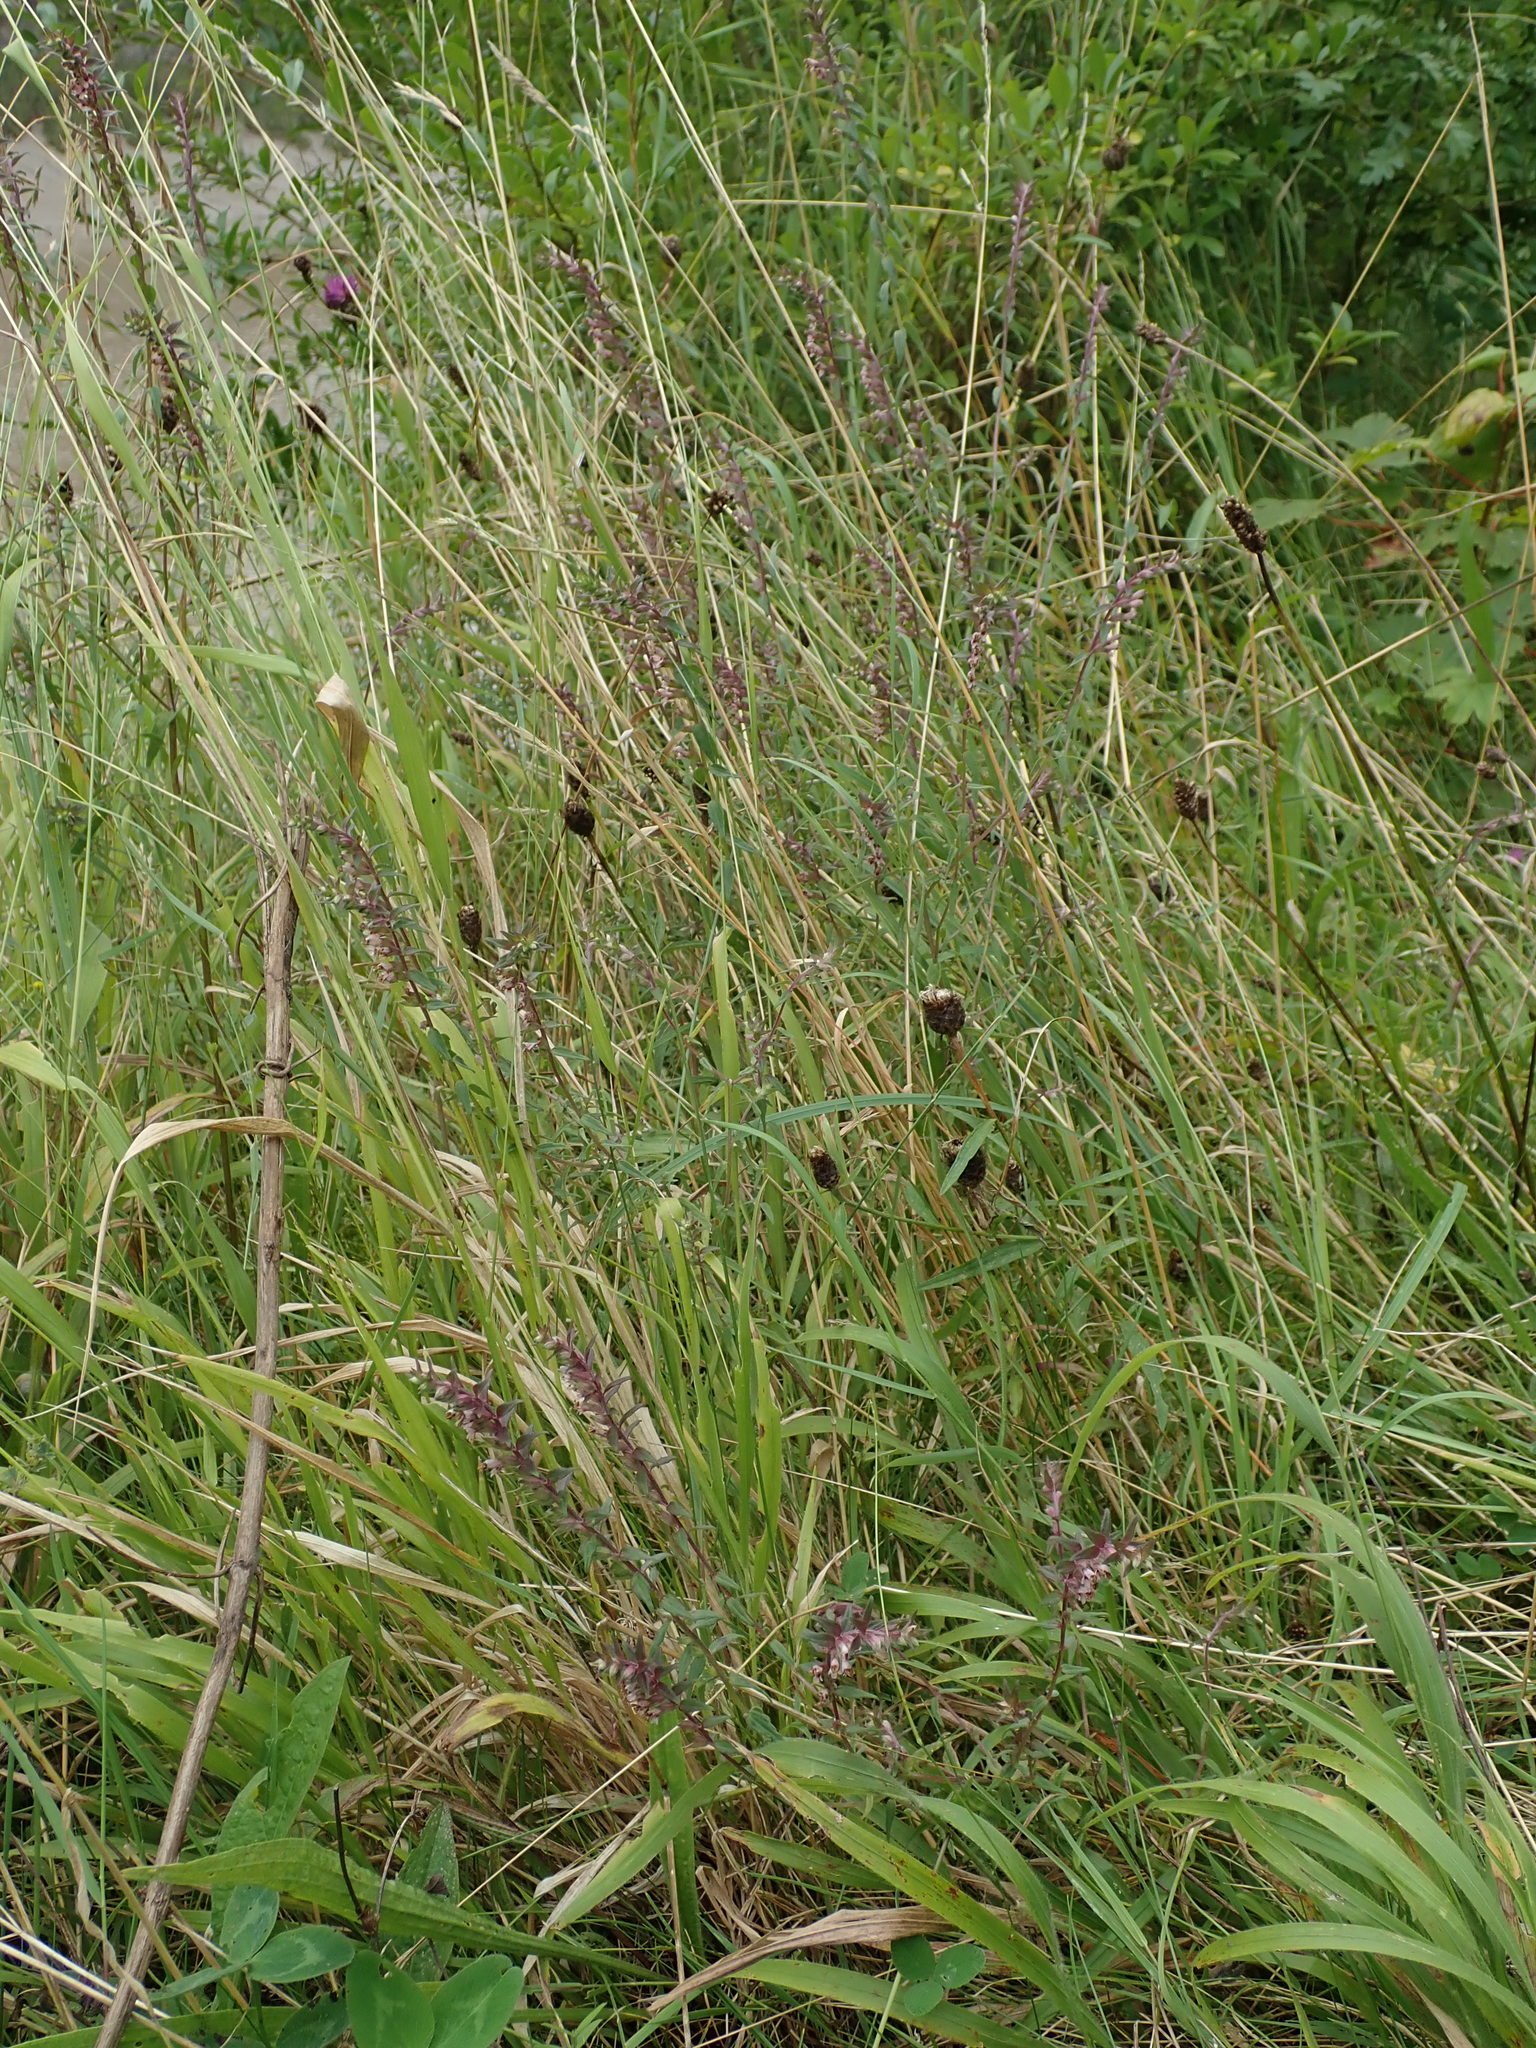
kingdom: Plantae
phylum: Tracheophyta
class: Magnoliopsida
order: Lamiales
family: Orobanchaceae
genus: Odontites
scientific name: Odontites vulgaris
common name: Broomrape
